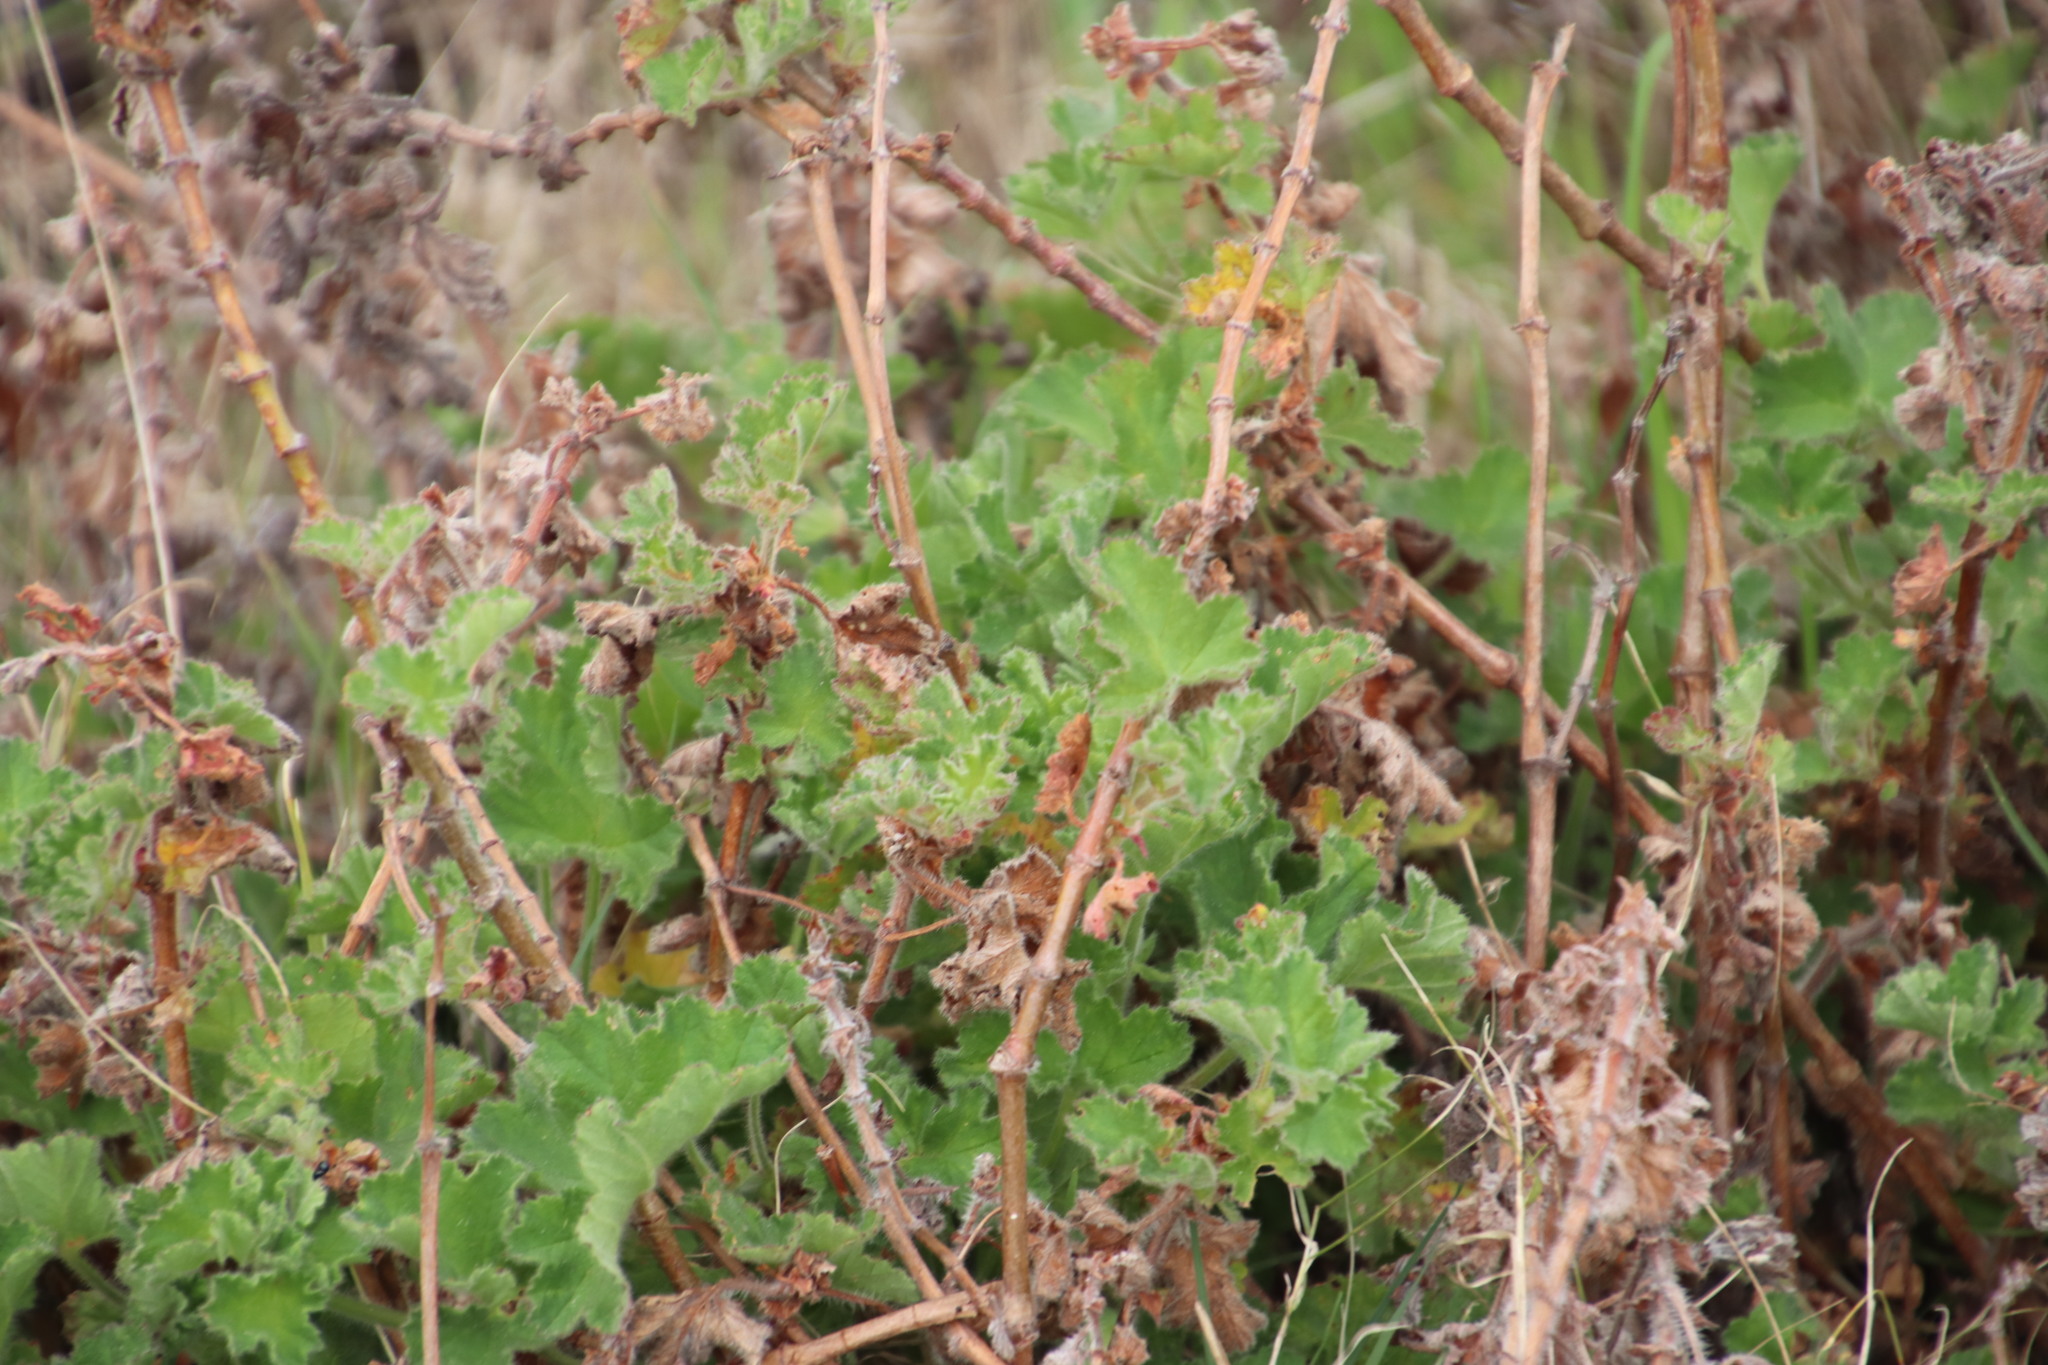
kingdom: Plantae
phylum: Tracheophyta
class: Magnoliopsida
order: Geraniales
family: Geraniaceae
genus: Pelargonium
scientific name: Pelargonium capitatum
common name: Rose scented geranium
